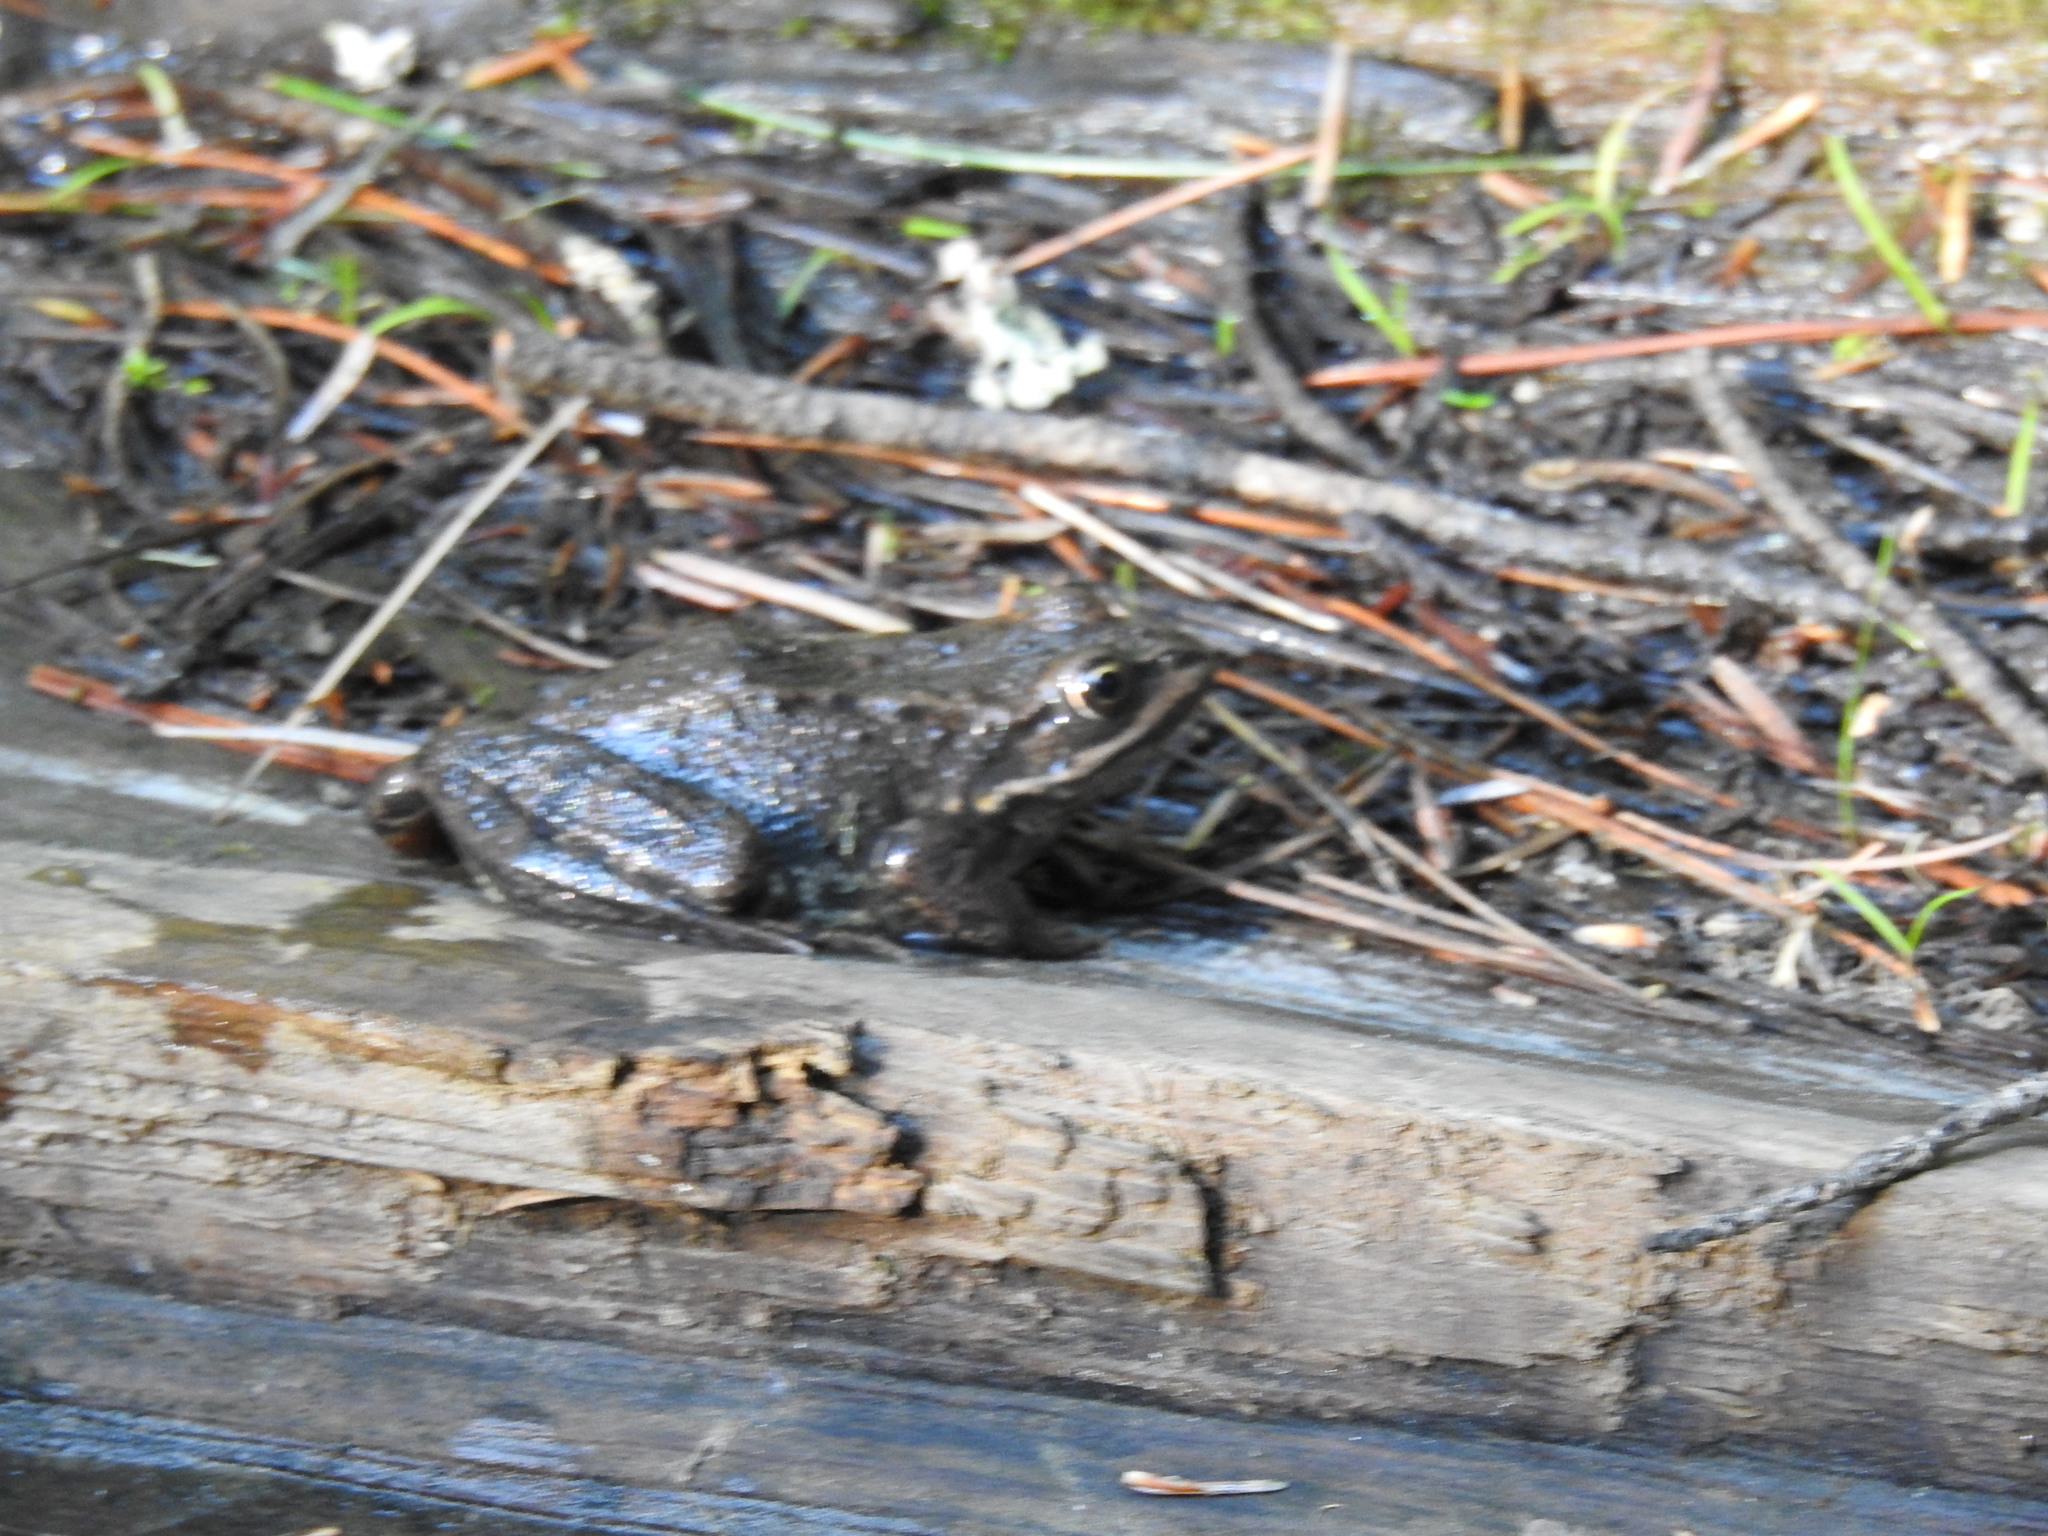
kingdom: Animalia
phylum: Chordata
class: Amphibia
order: Anura
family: Ranidae
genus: Rana
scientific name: Rana luteiventris
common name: Columbia spotted frog
